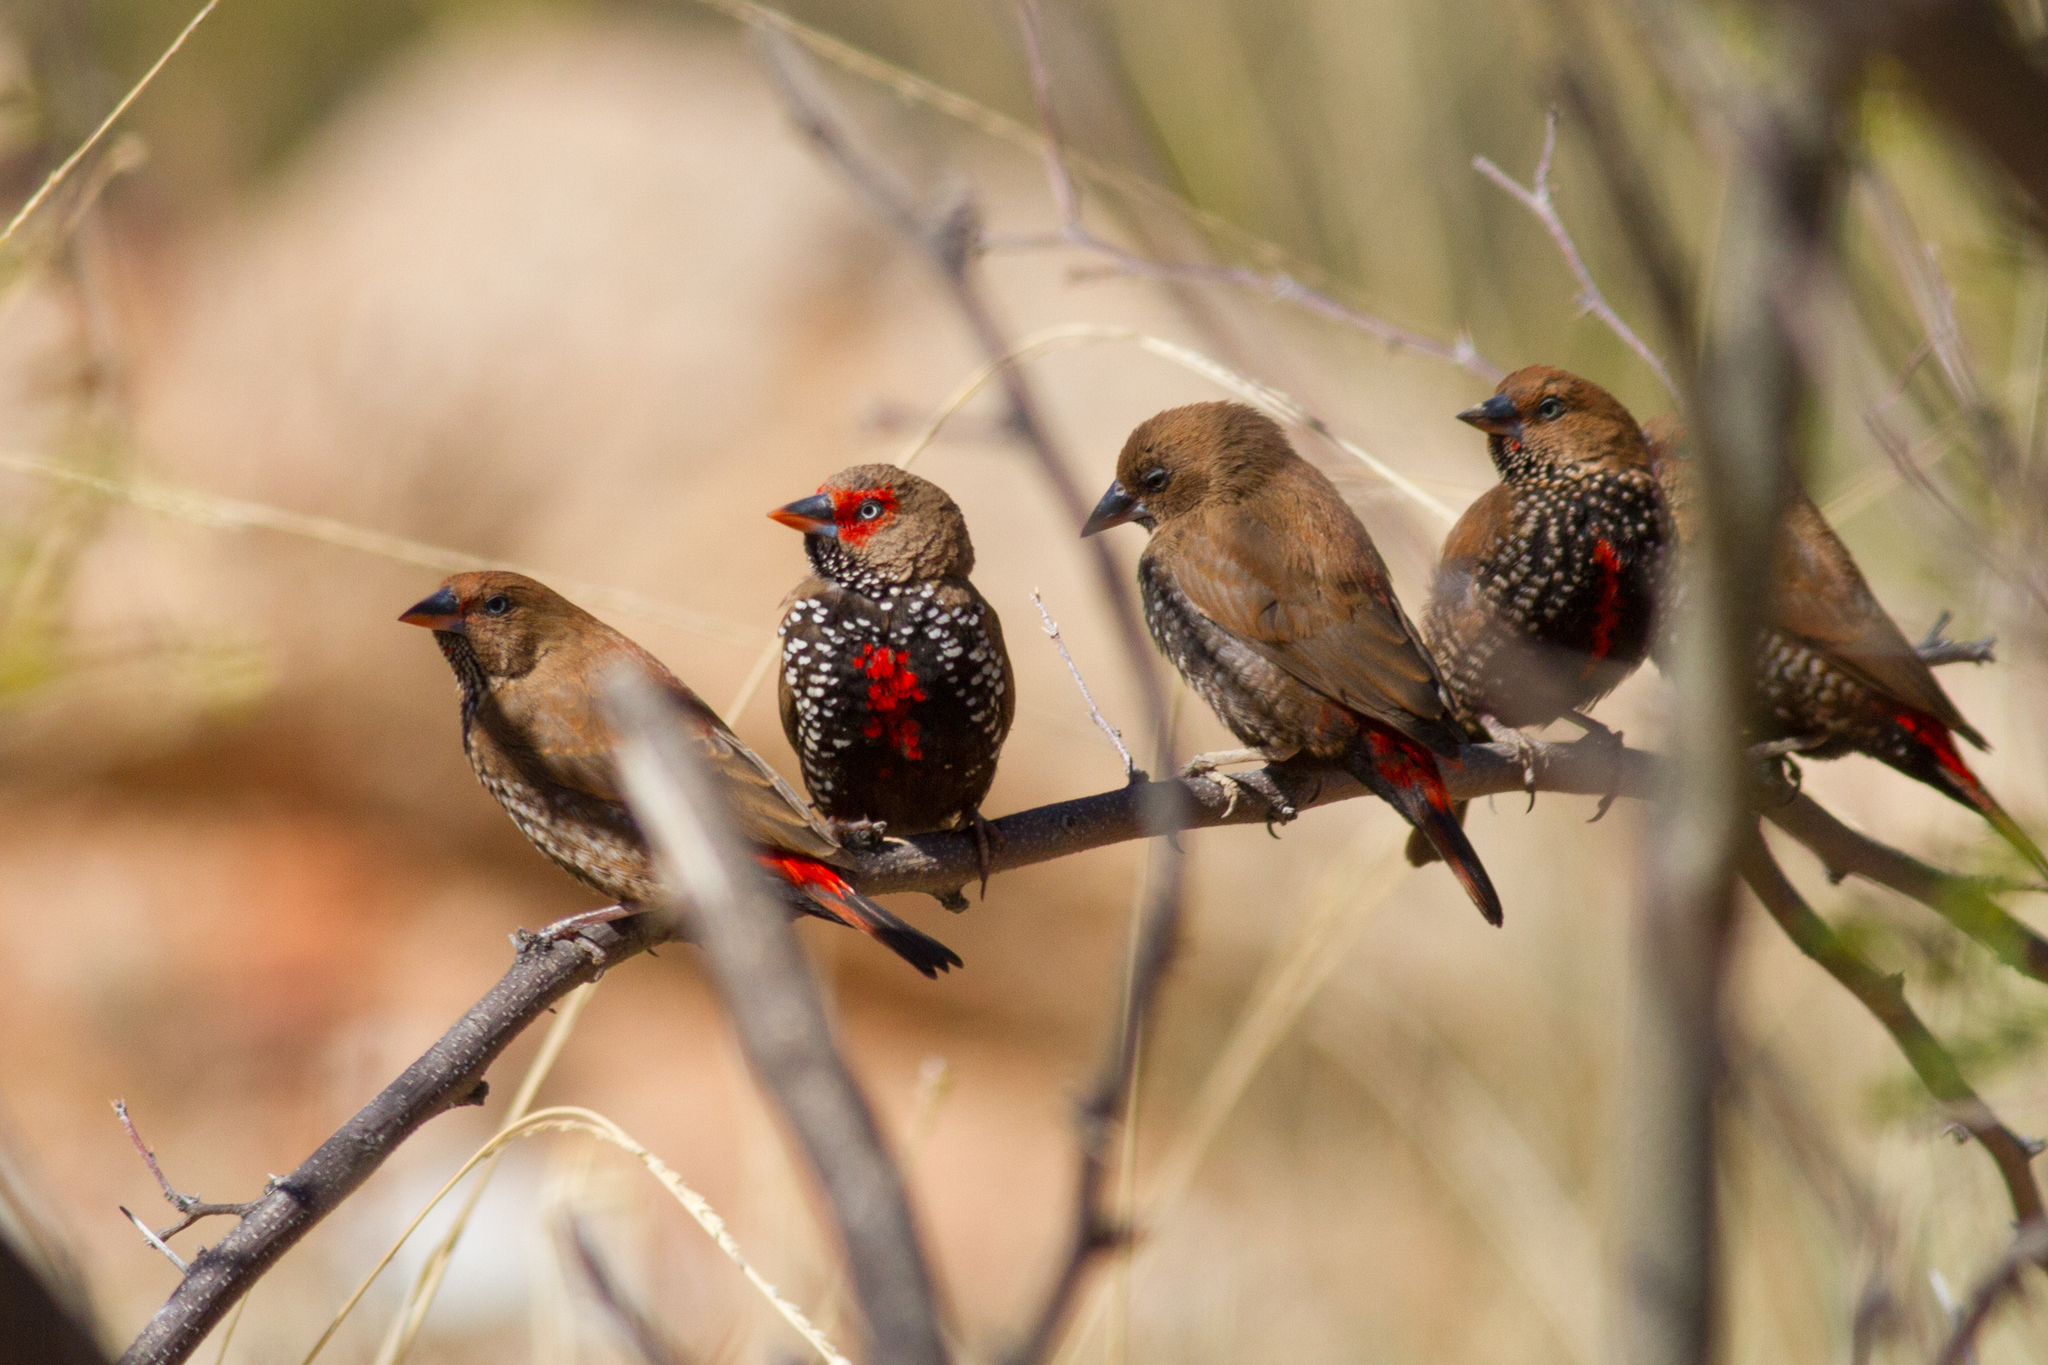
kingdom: Animalia
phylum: Chordata
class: Aves
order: Passeriformes
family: Estrildidae
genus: Emblema
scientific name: Emblema pictum
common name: Painted finch
